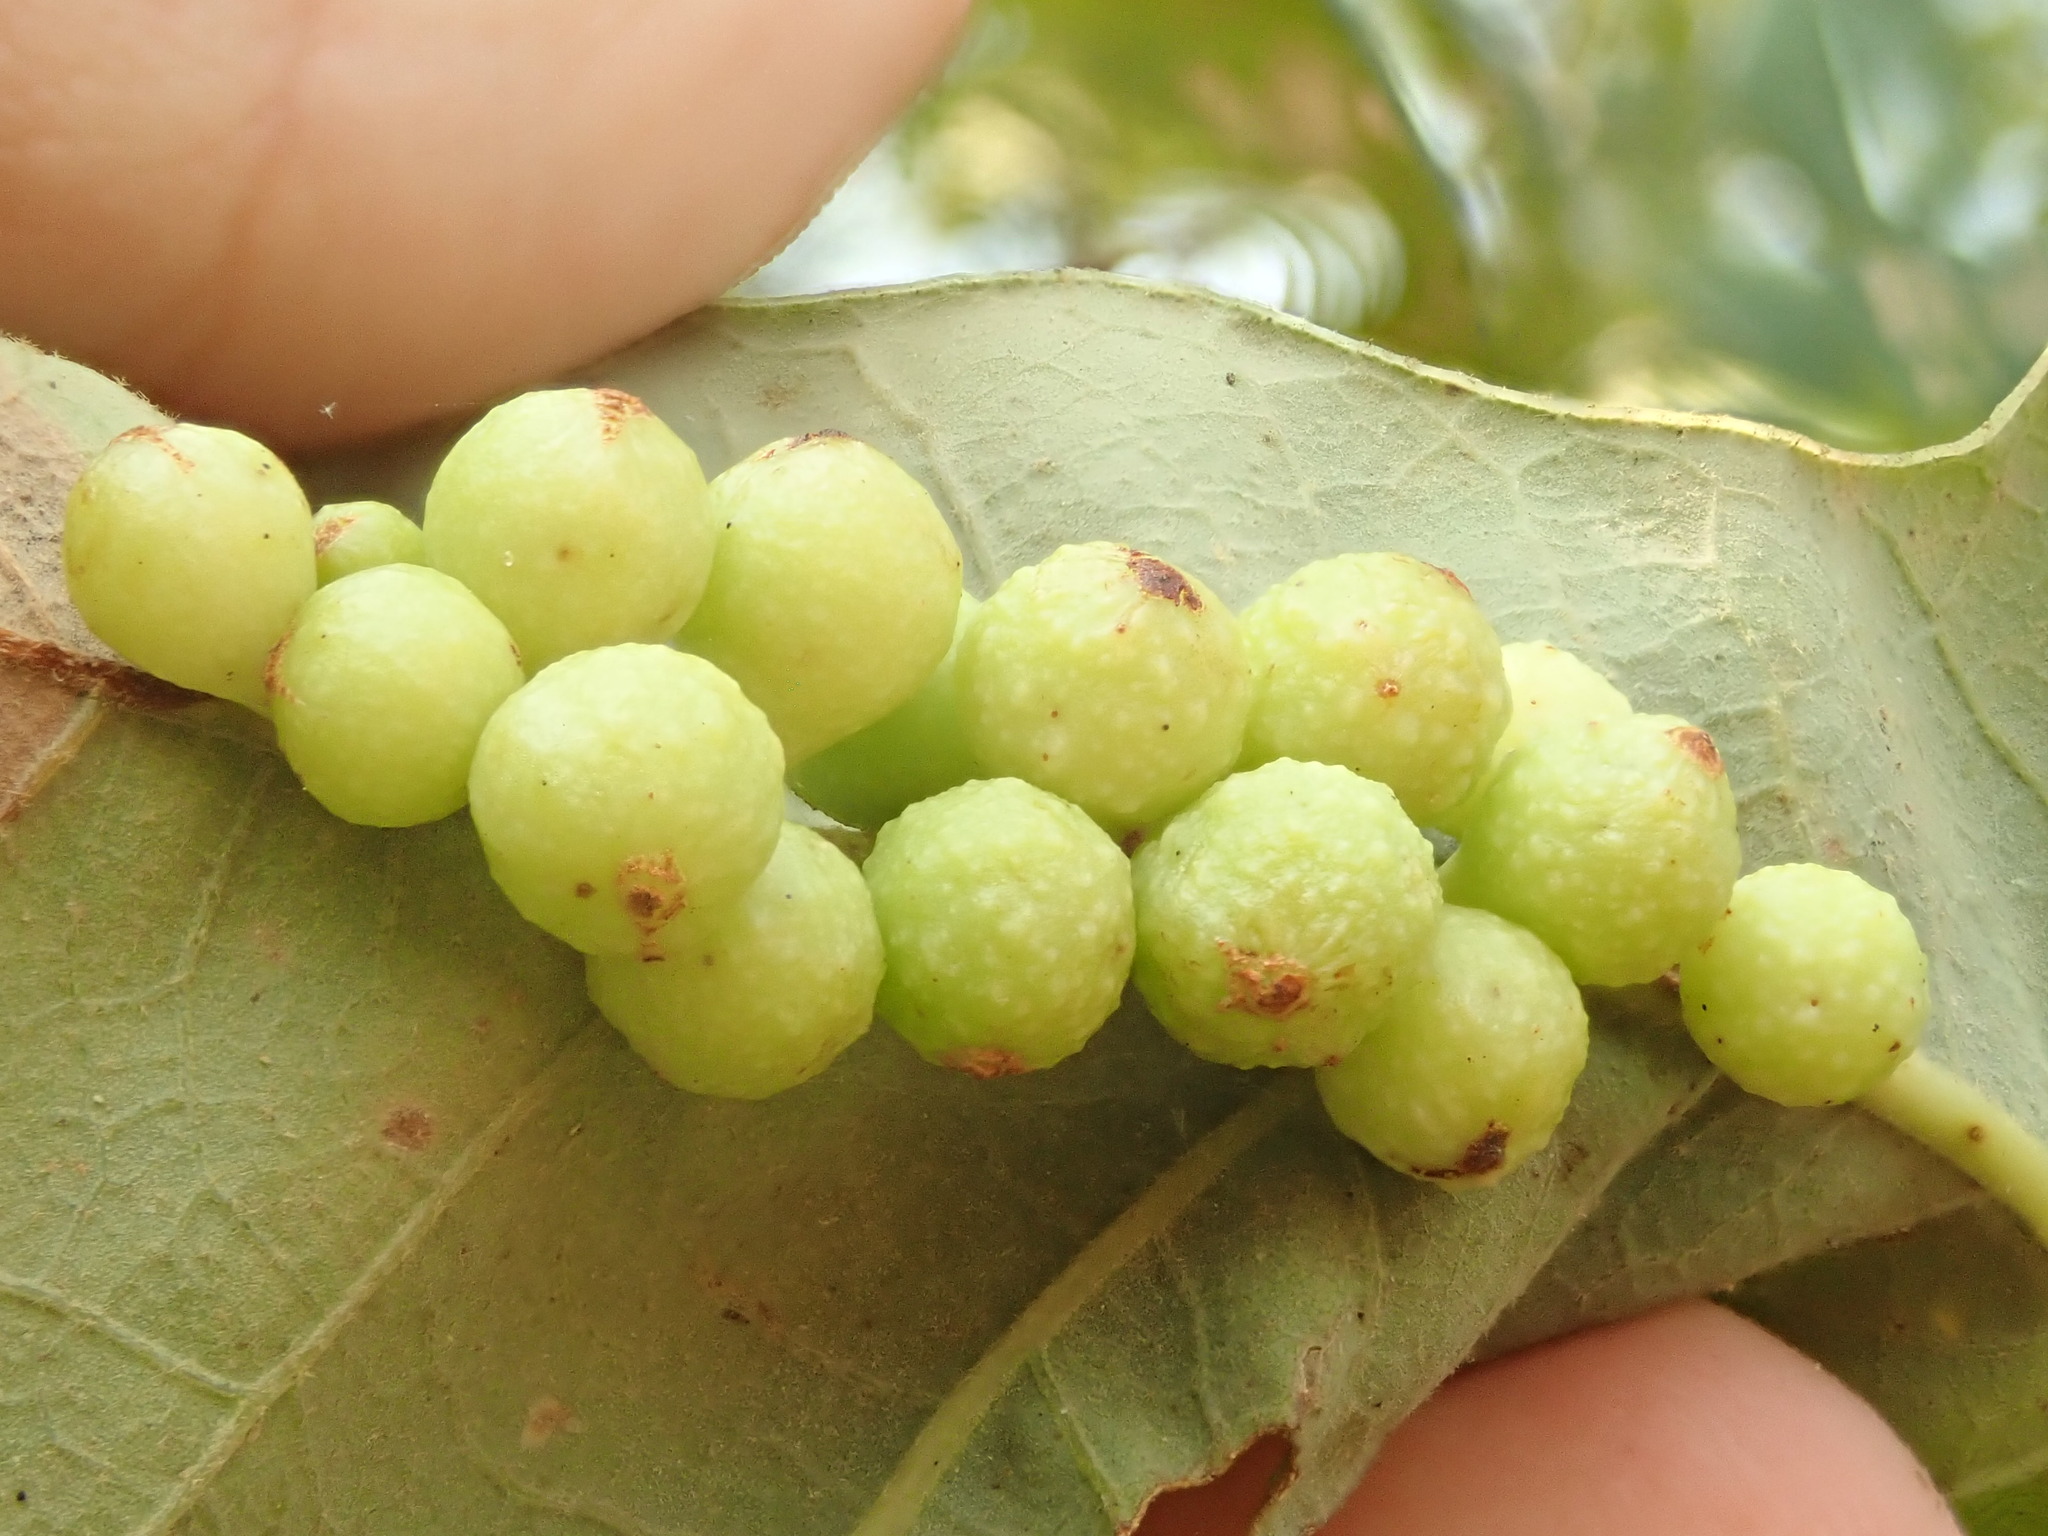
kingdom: Animalia
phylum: Arthropoda
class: Insecta
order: Hymenoptera
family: Cynipidae
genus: Andricus
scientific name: Andricus
